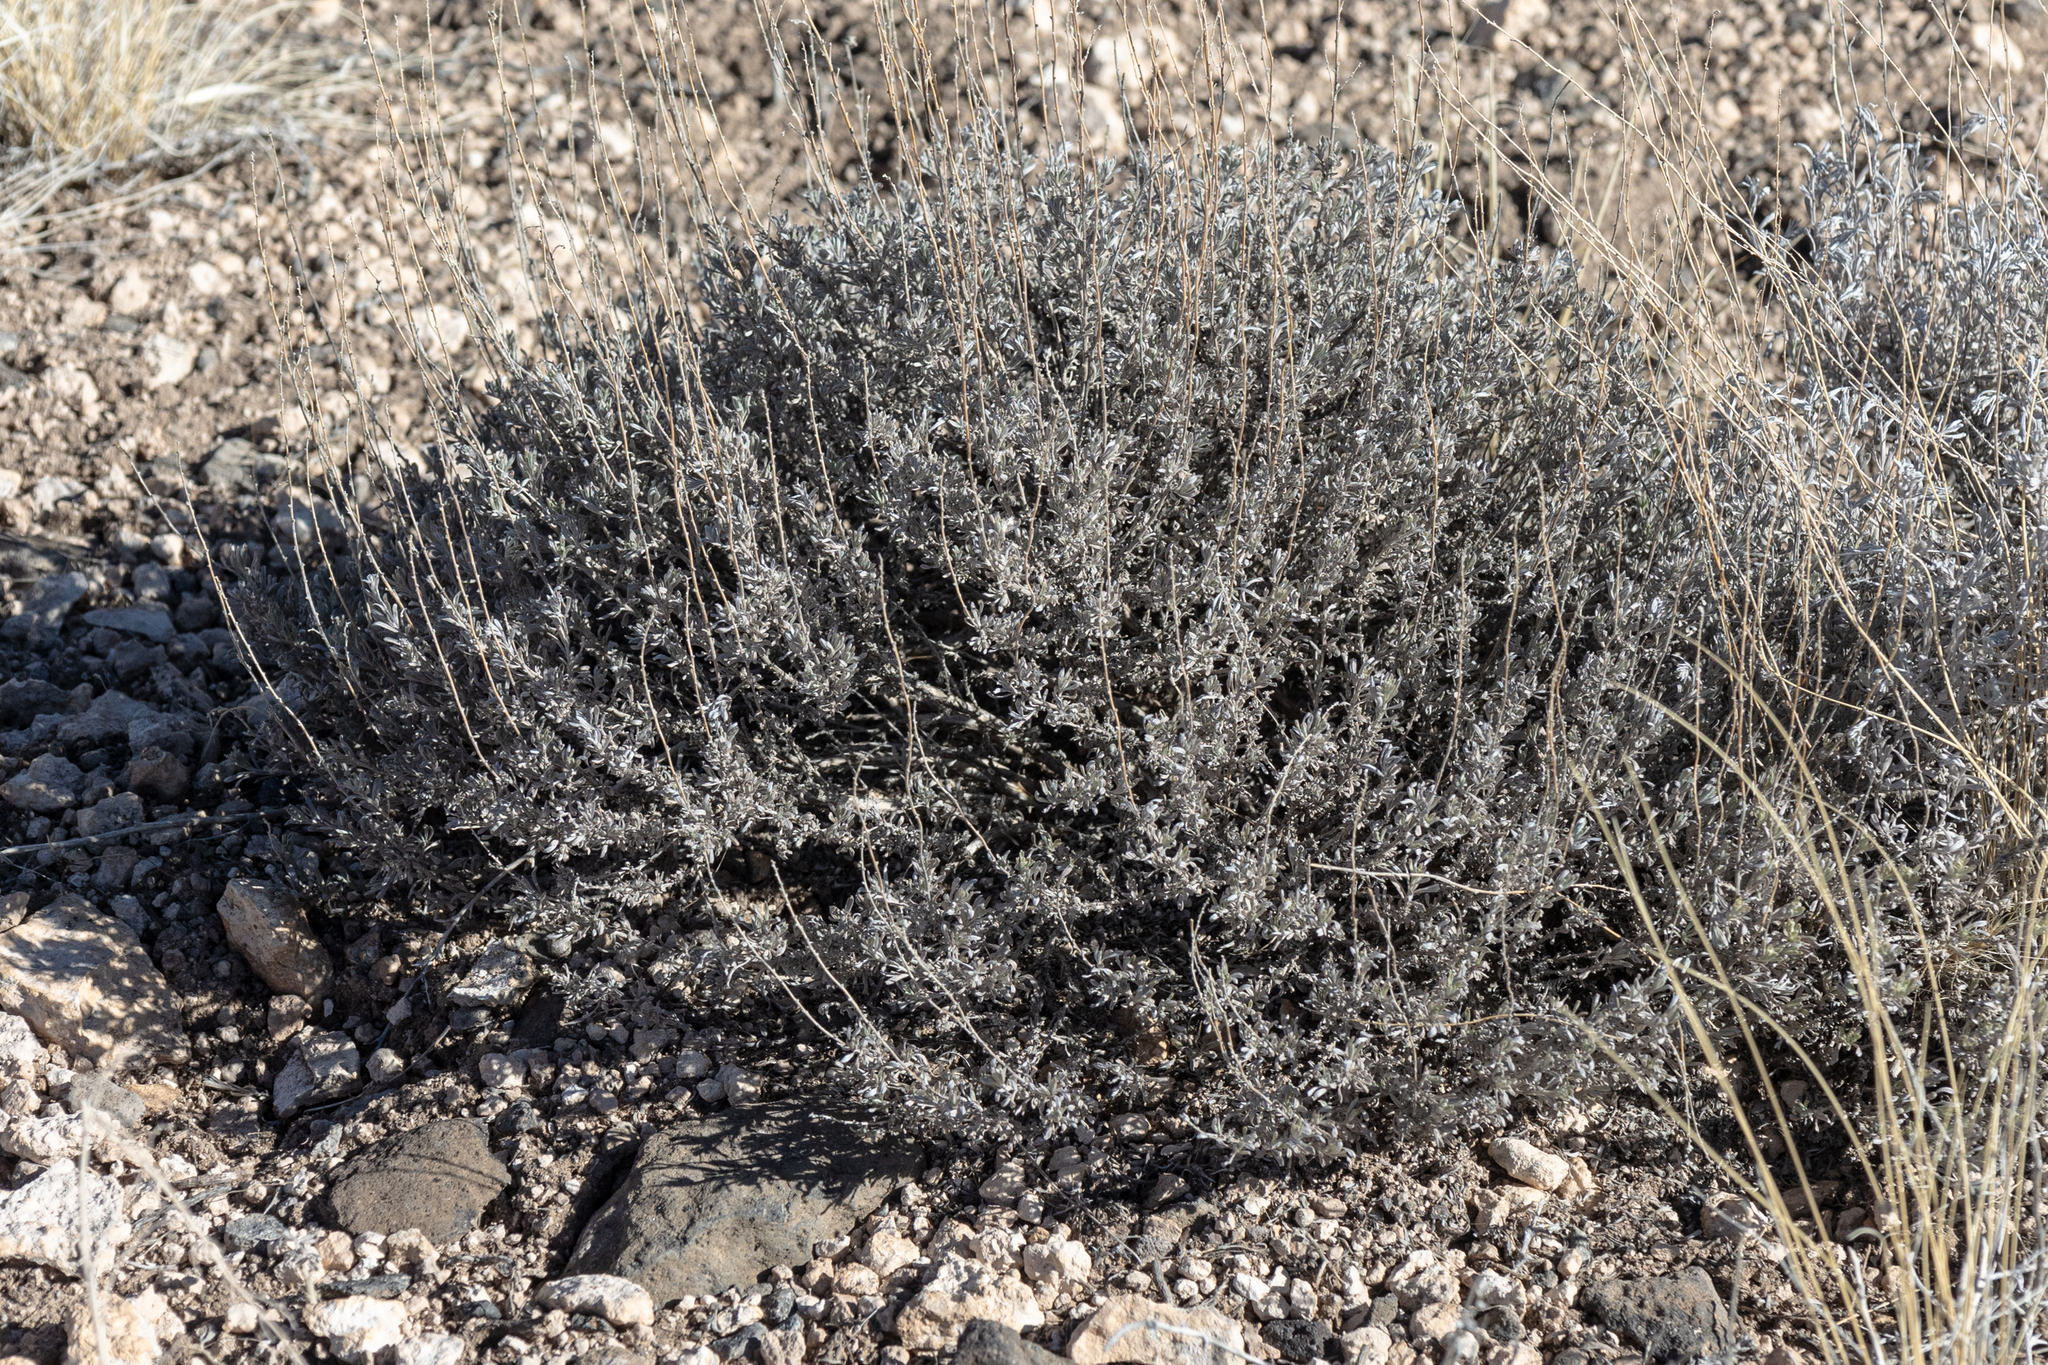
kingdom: Plantae
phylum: Tracheophyta
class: Magnoliopsida
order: Asterales
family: Asteraceae
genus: Artemisia
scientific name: Artemisia bigelovii
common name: Bigelow sagebrush
